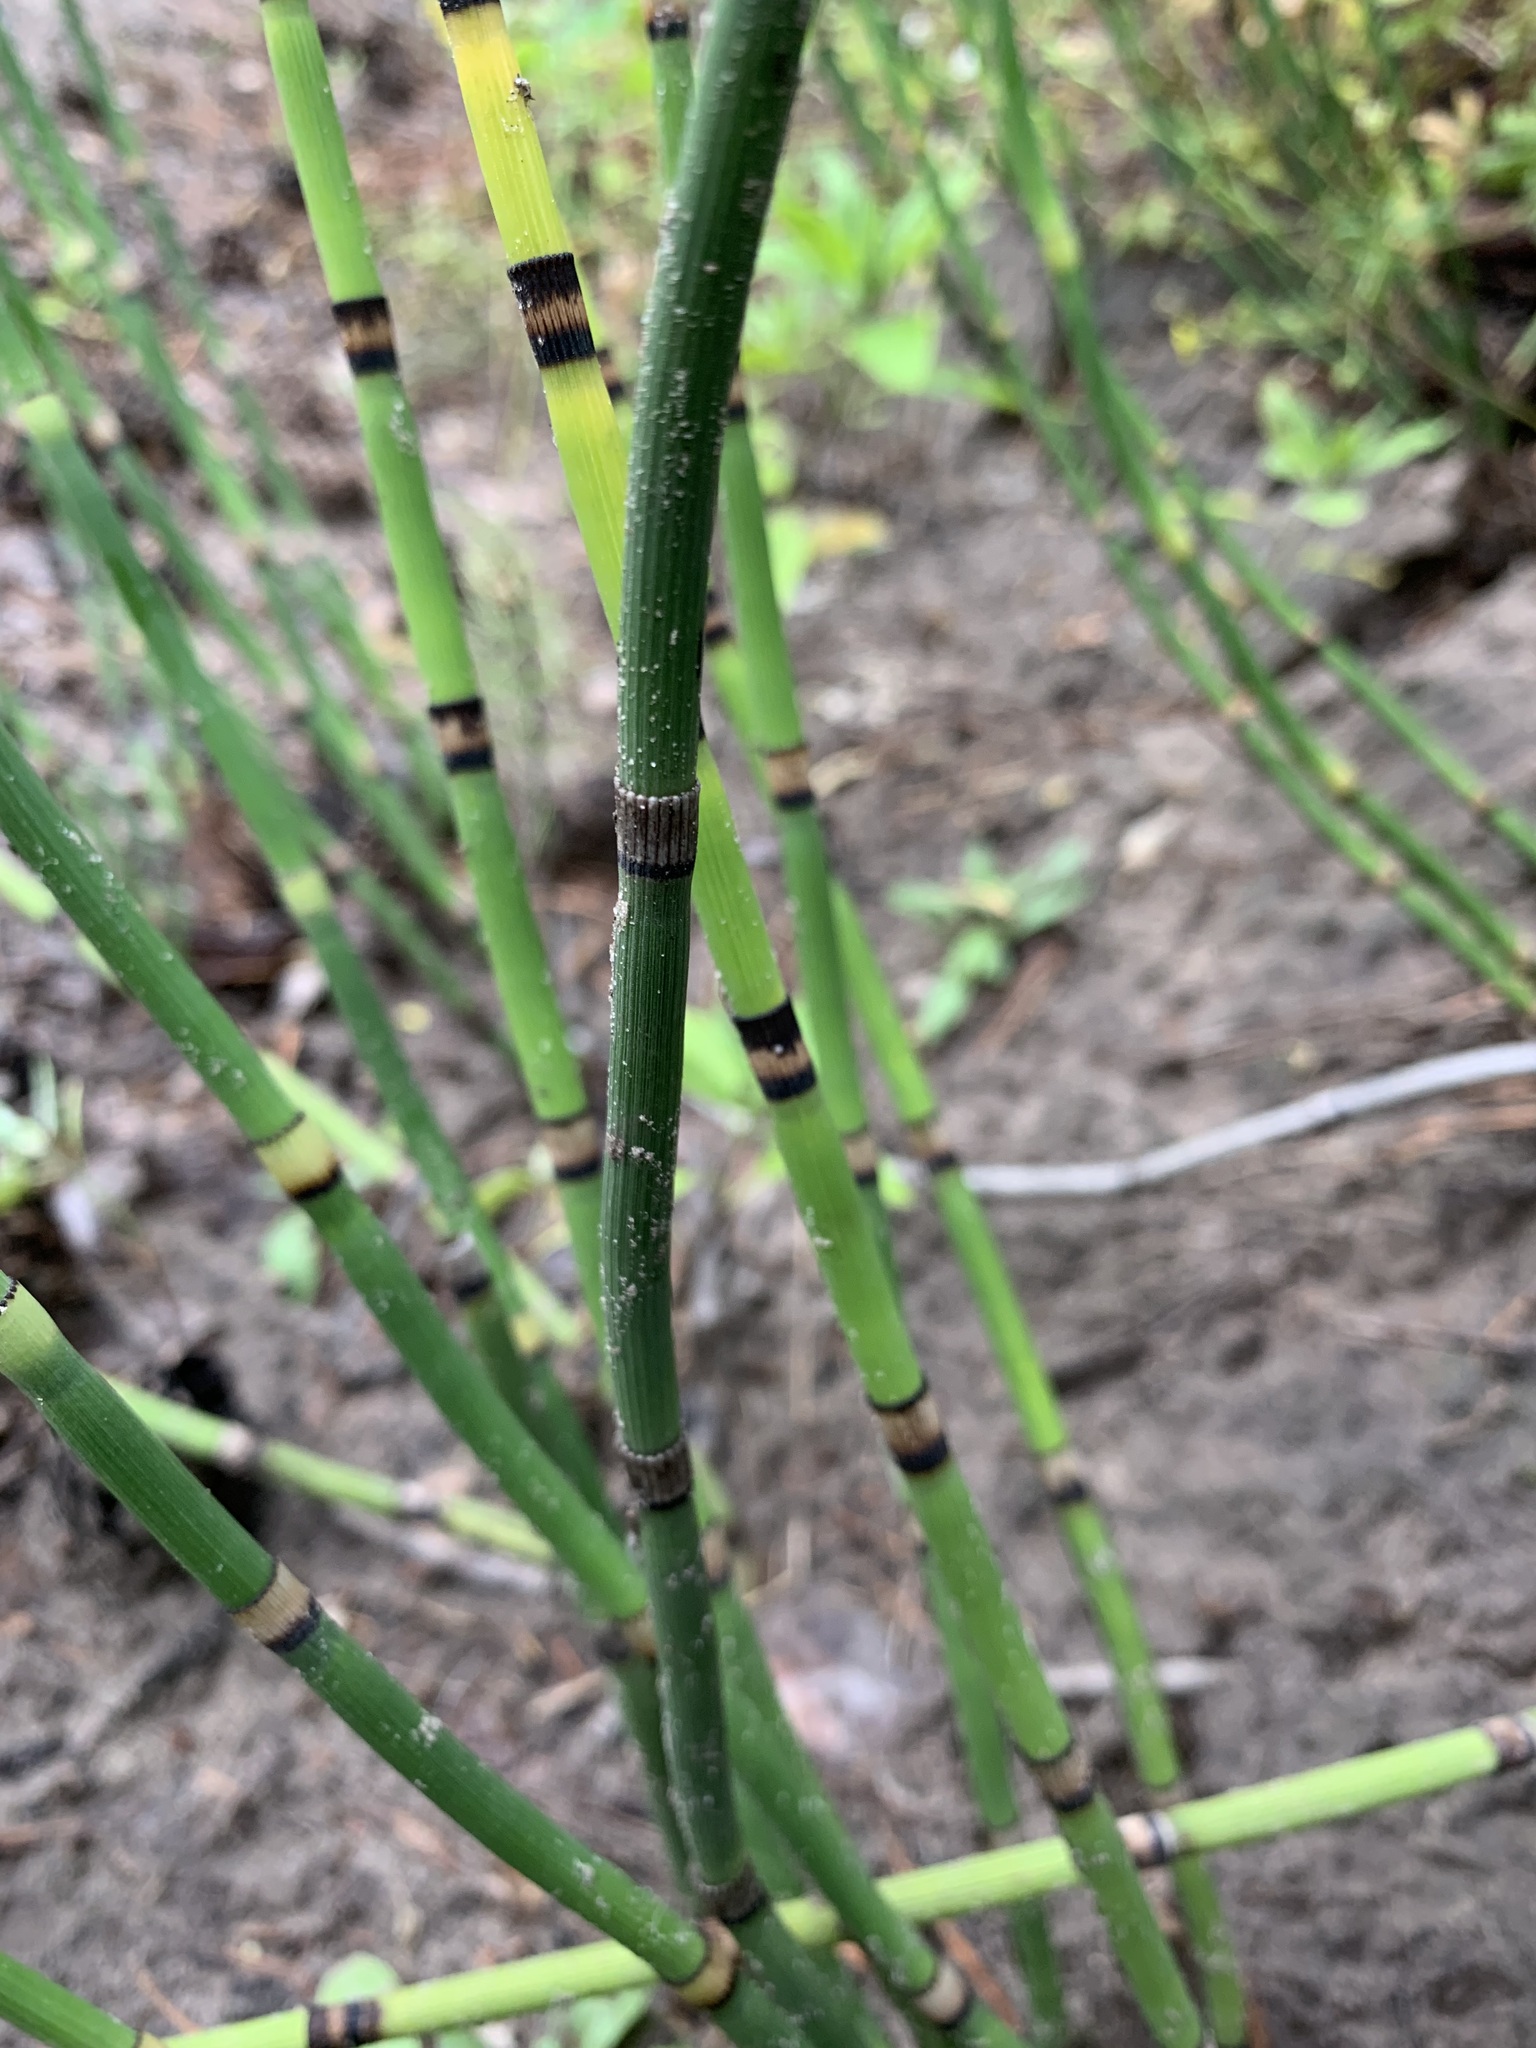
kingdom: Plantae
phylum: Tracheophyta
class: Polypodiopsida
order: Equisetales
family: Equisetaceae
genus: Equisetum
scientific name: Equisetum hyemale
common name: Rough horsetail
